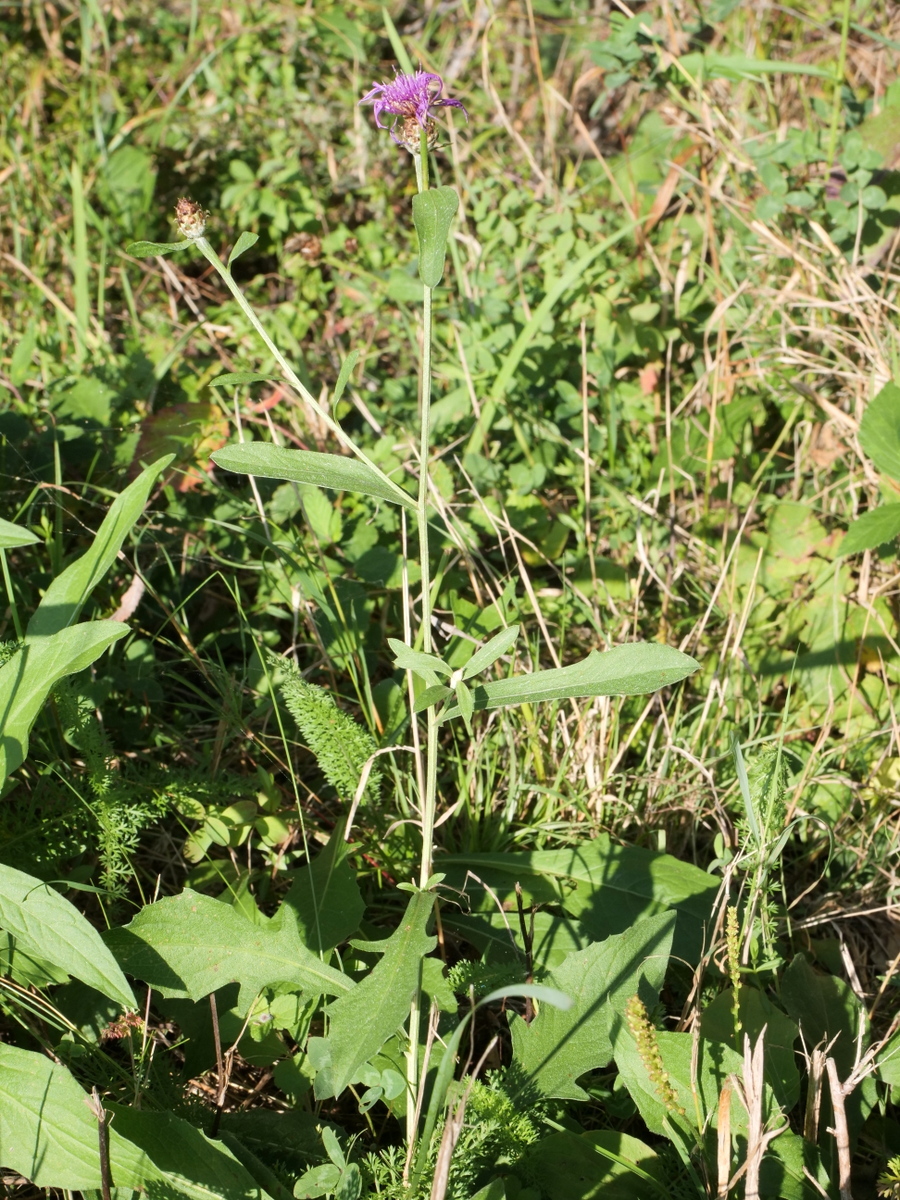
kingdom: Plantae
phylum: Tracheophyta
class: Magnoliopsida
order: Asterales
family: Asteraceae
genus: Centaurea
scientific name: Centaurea jacea
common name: Brown knapweed
